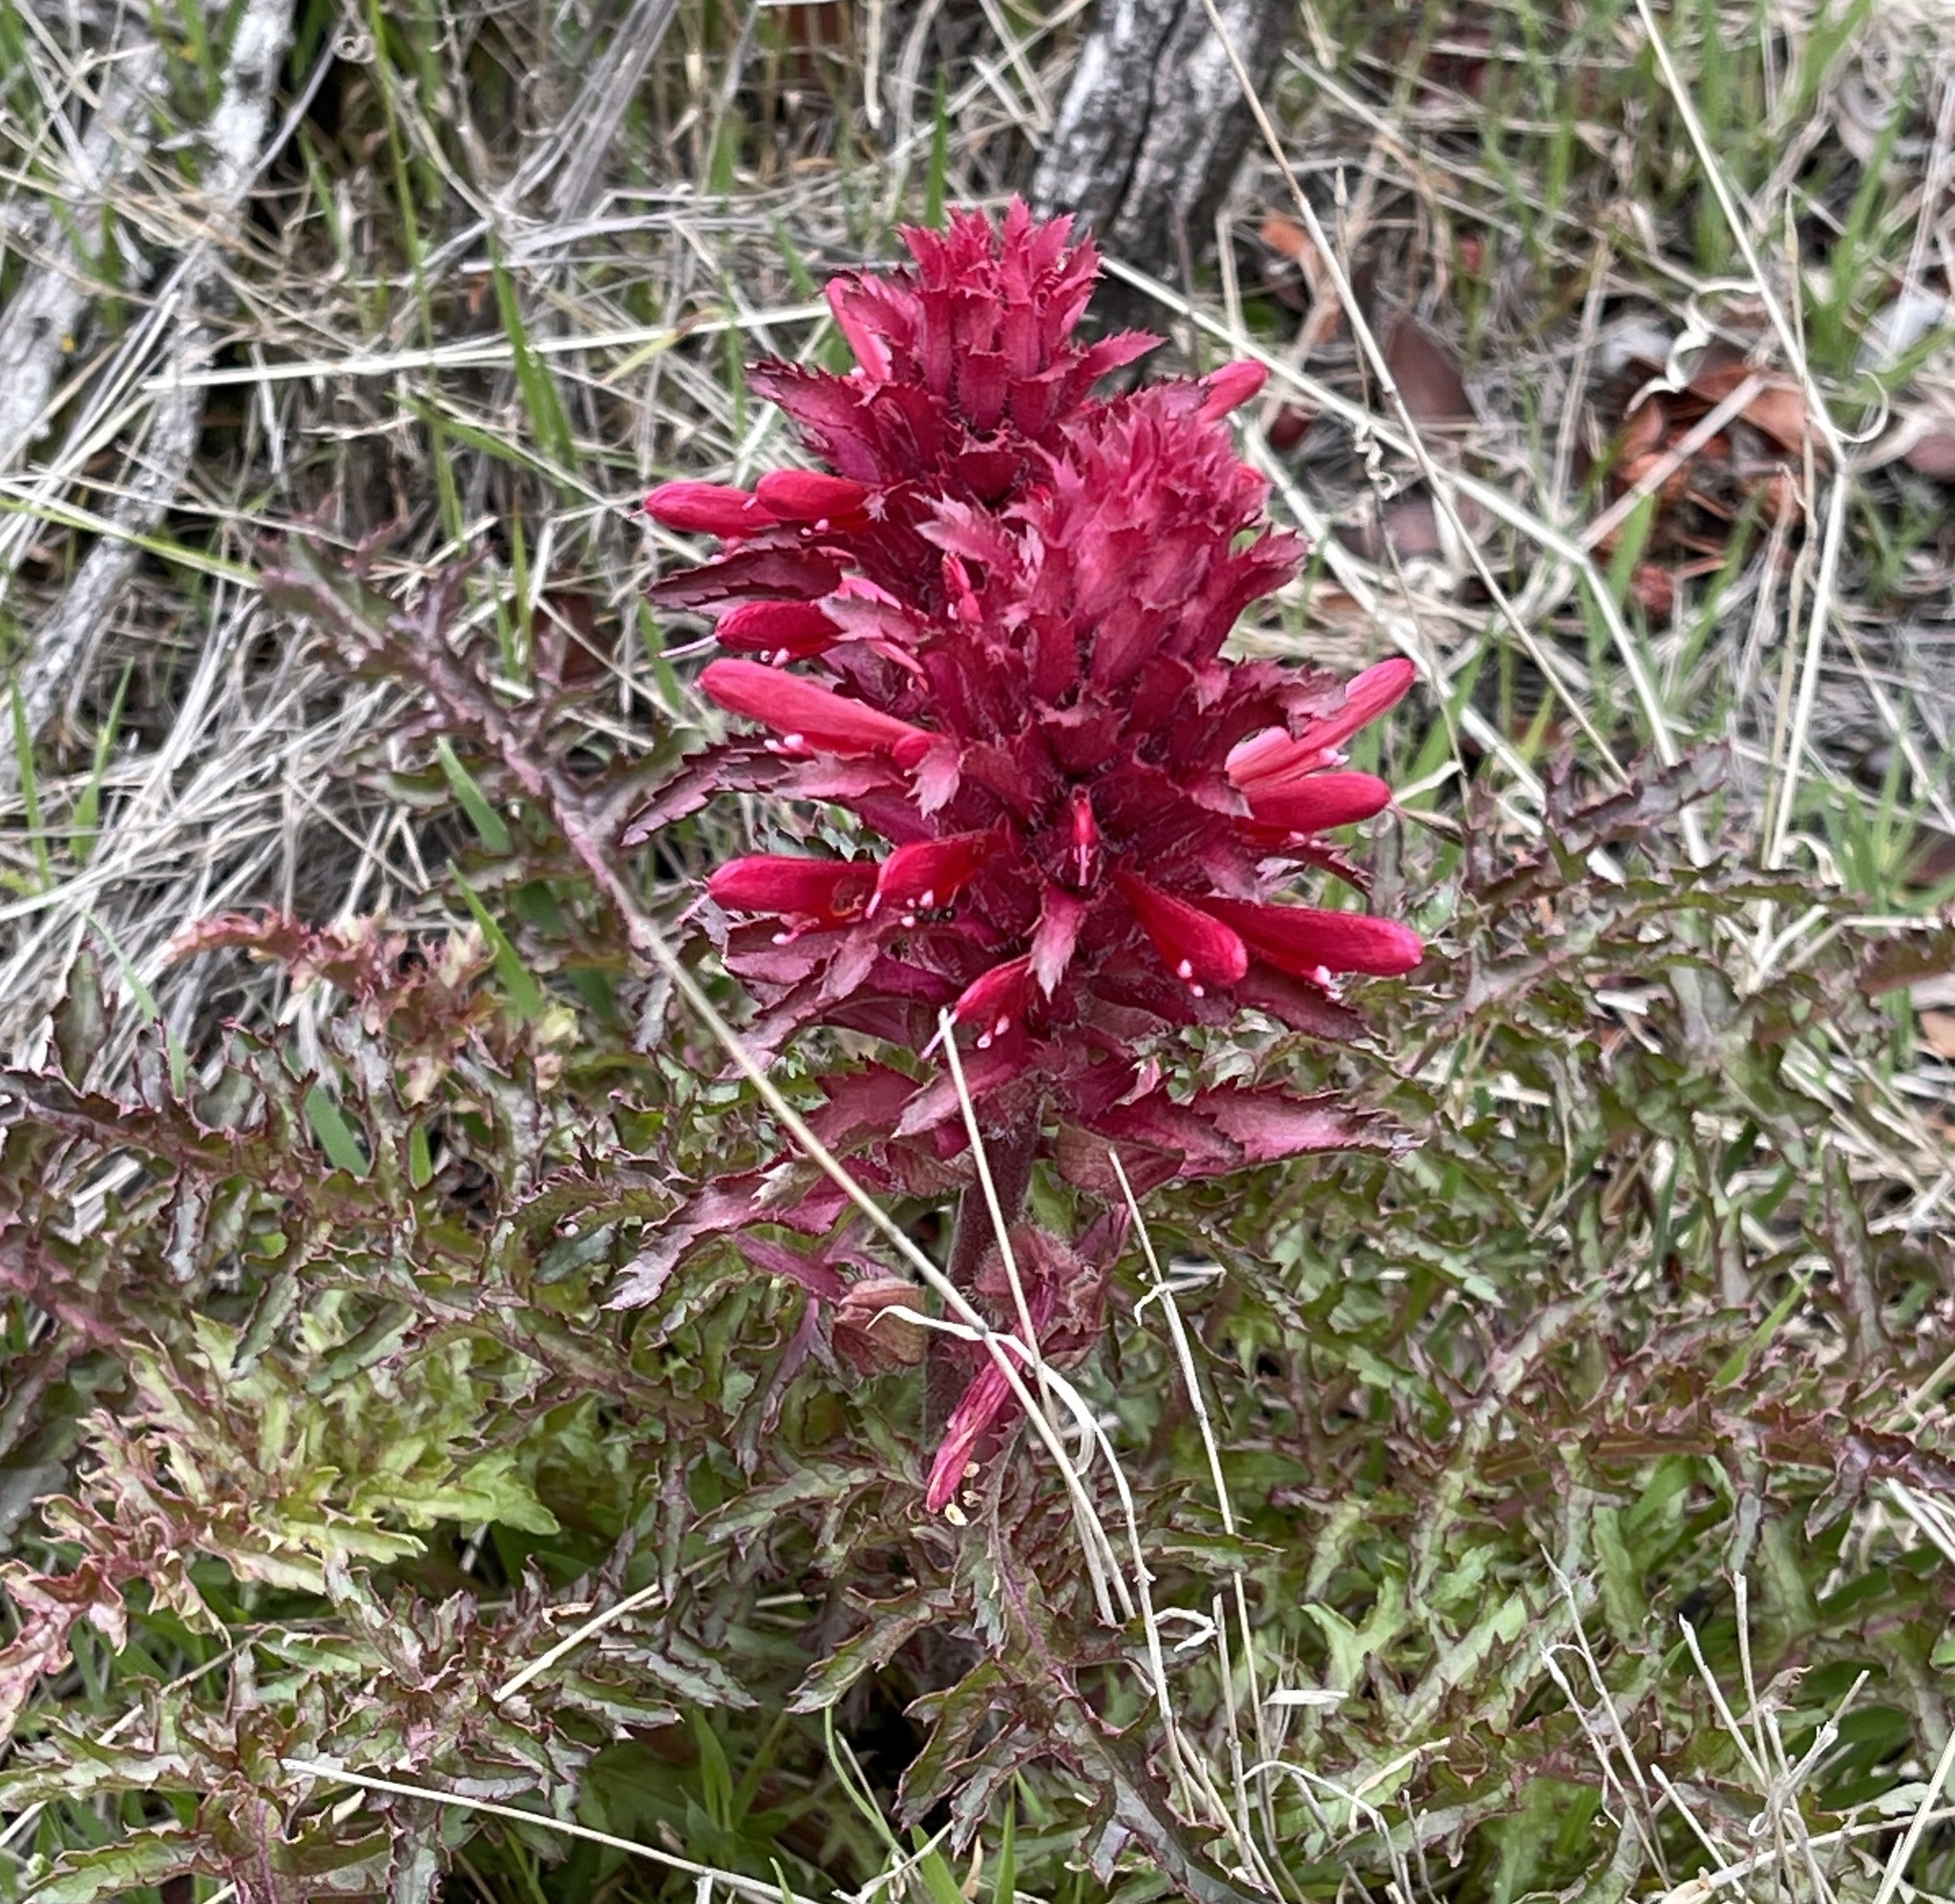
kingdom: Plantae
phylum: Tracheophyta
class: Magnoliopsida
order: Lamiales
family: Orobanchaceae
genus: Pedicularis
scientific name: Pedicularis densiflora
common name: Indian warrior
